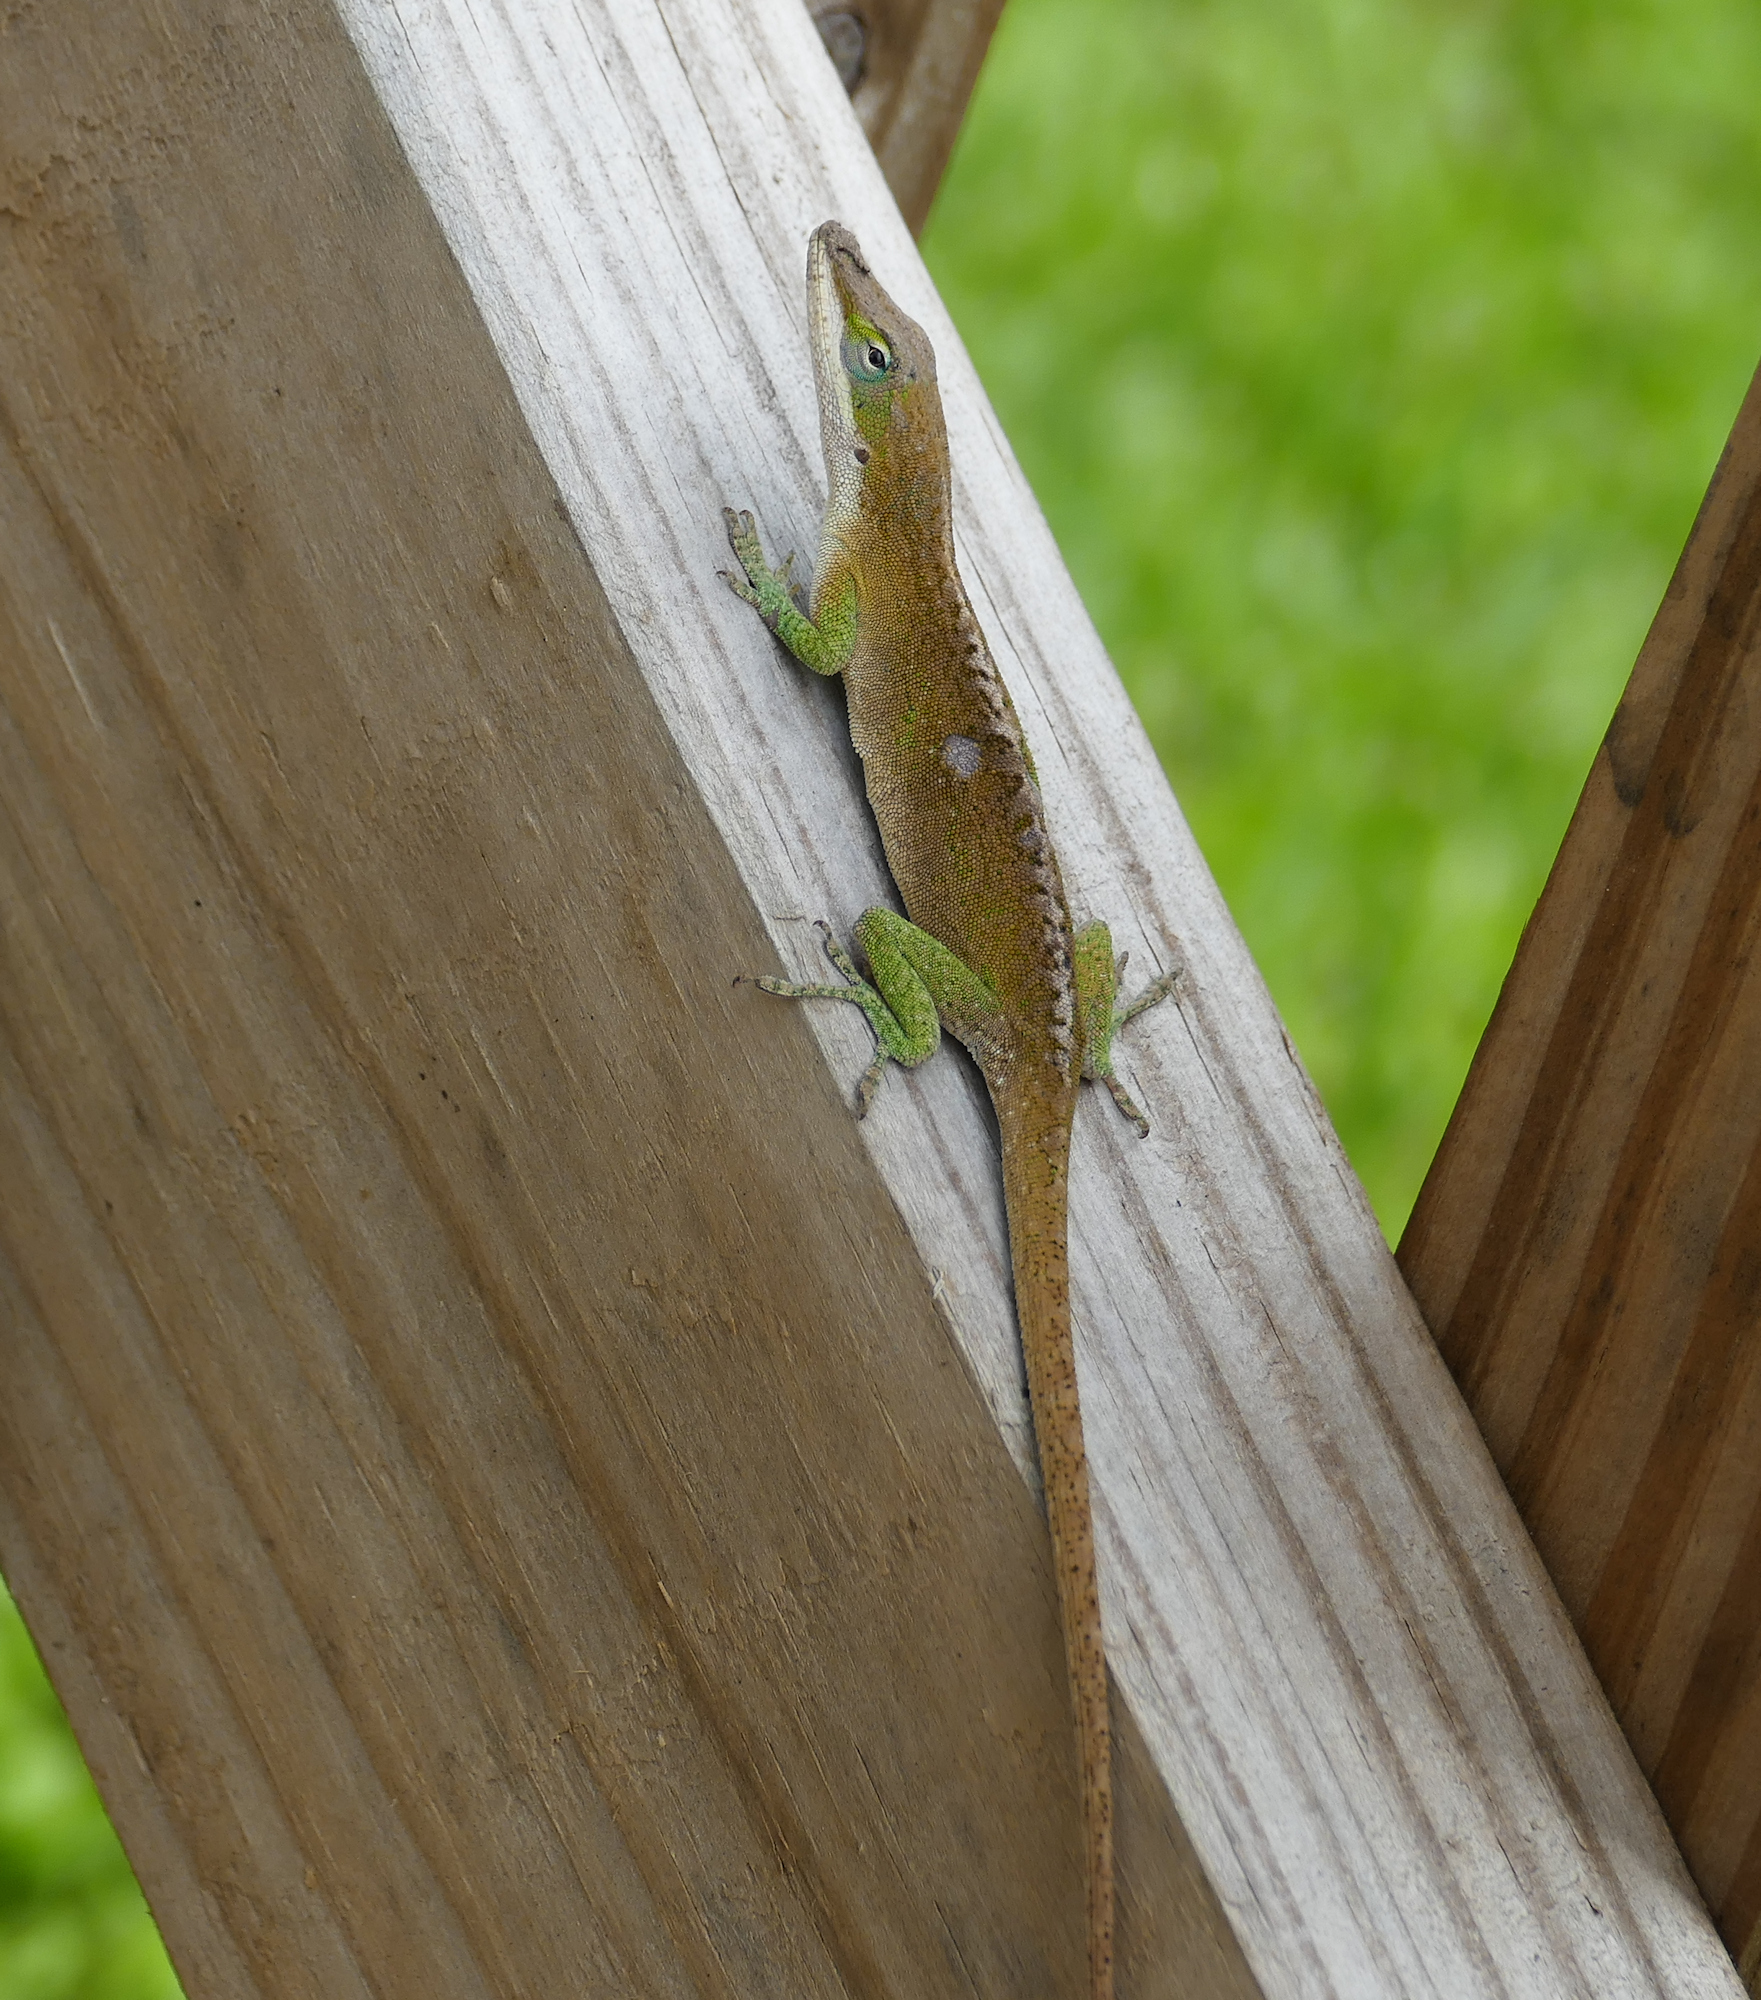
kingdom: Animalia
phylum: Chordata
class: Squamata
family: Dactyloidae
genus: Anolis
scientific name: Anolis carolinensis
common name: Green anole
